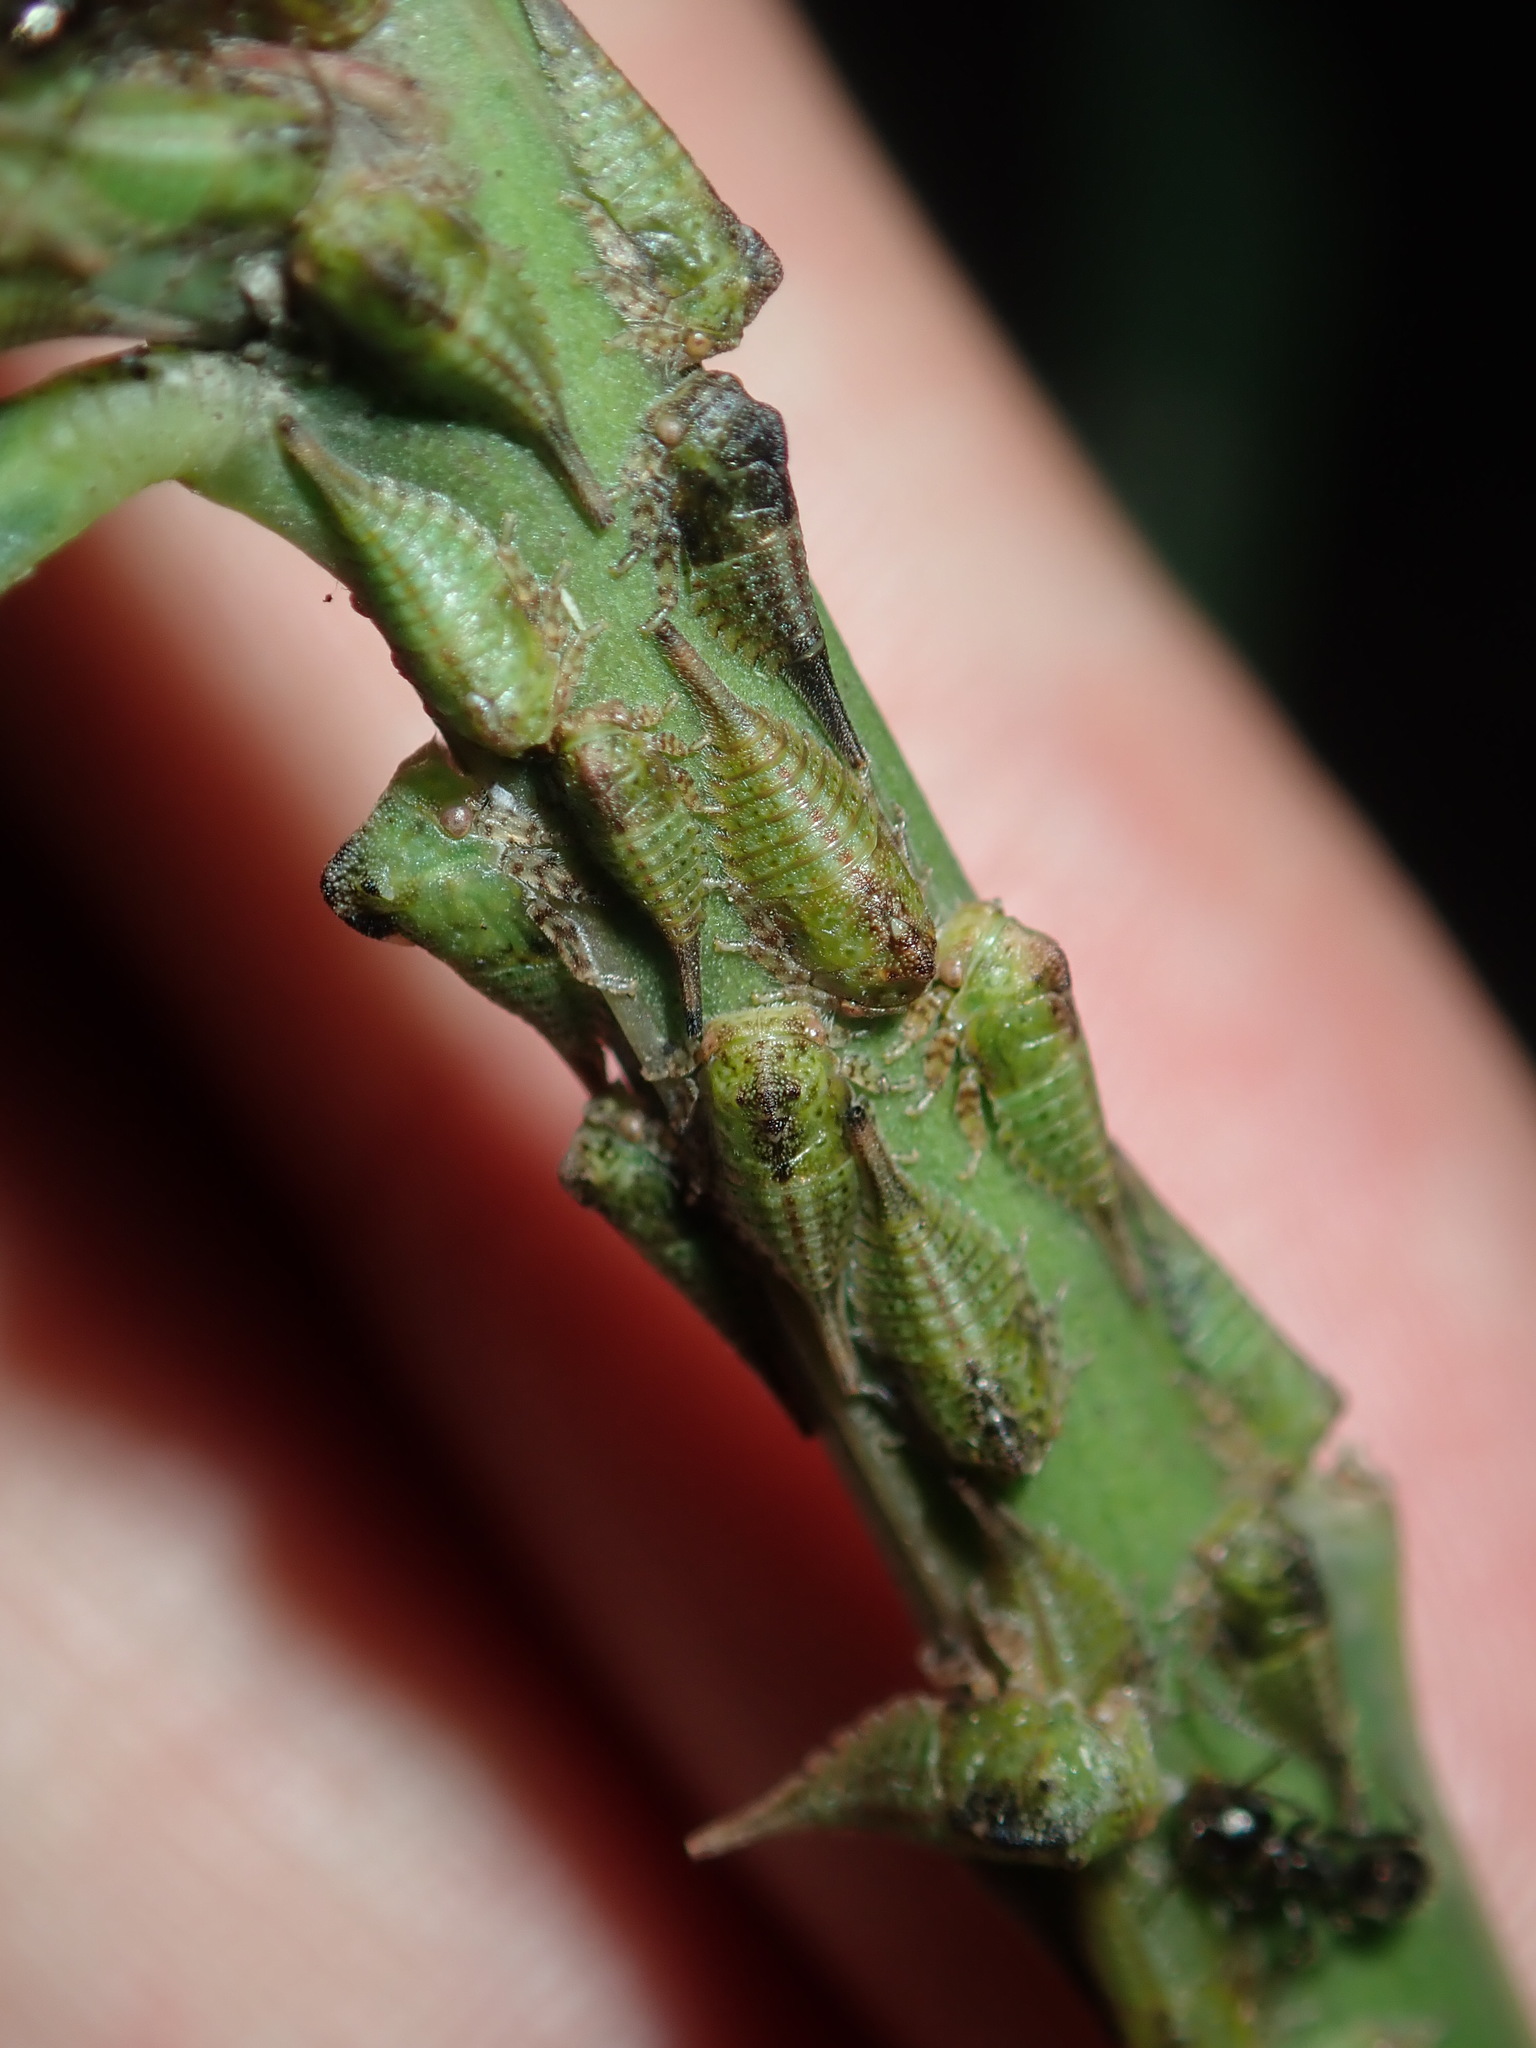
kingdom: Animalia
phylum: Arthropoda
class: Insecta
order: Hemiptera
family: Membracidae
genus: Sextius
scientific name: Sextius virescens
